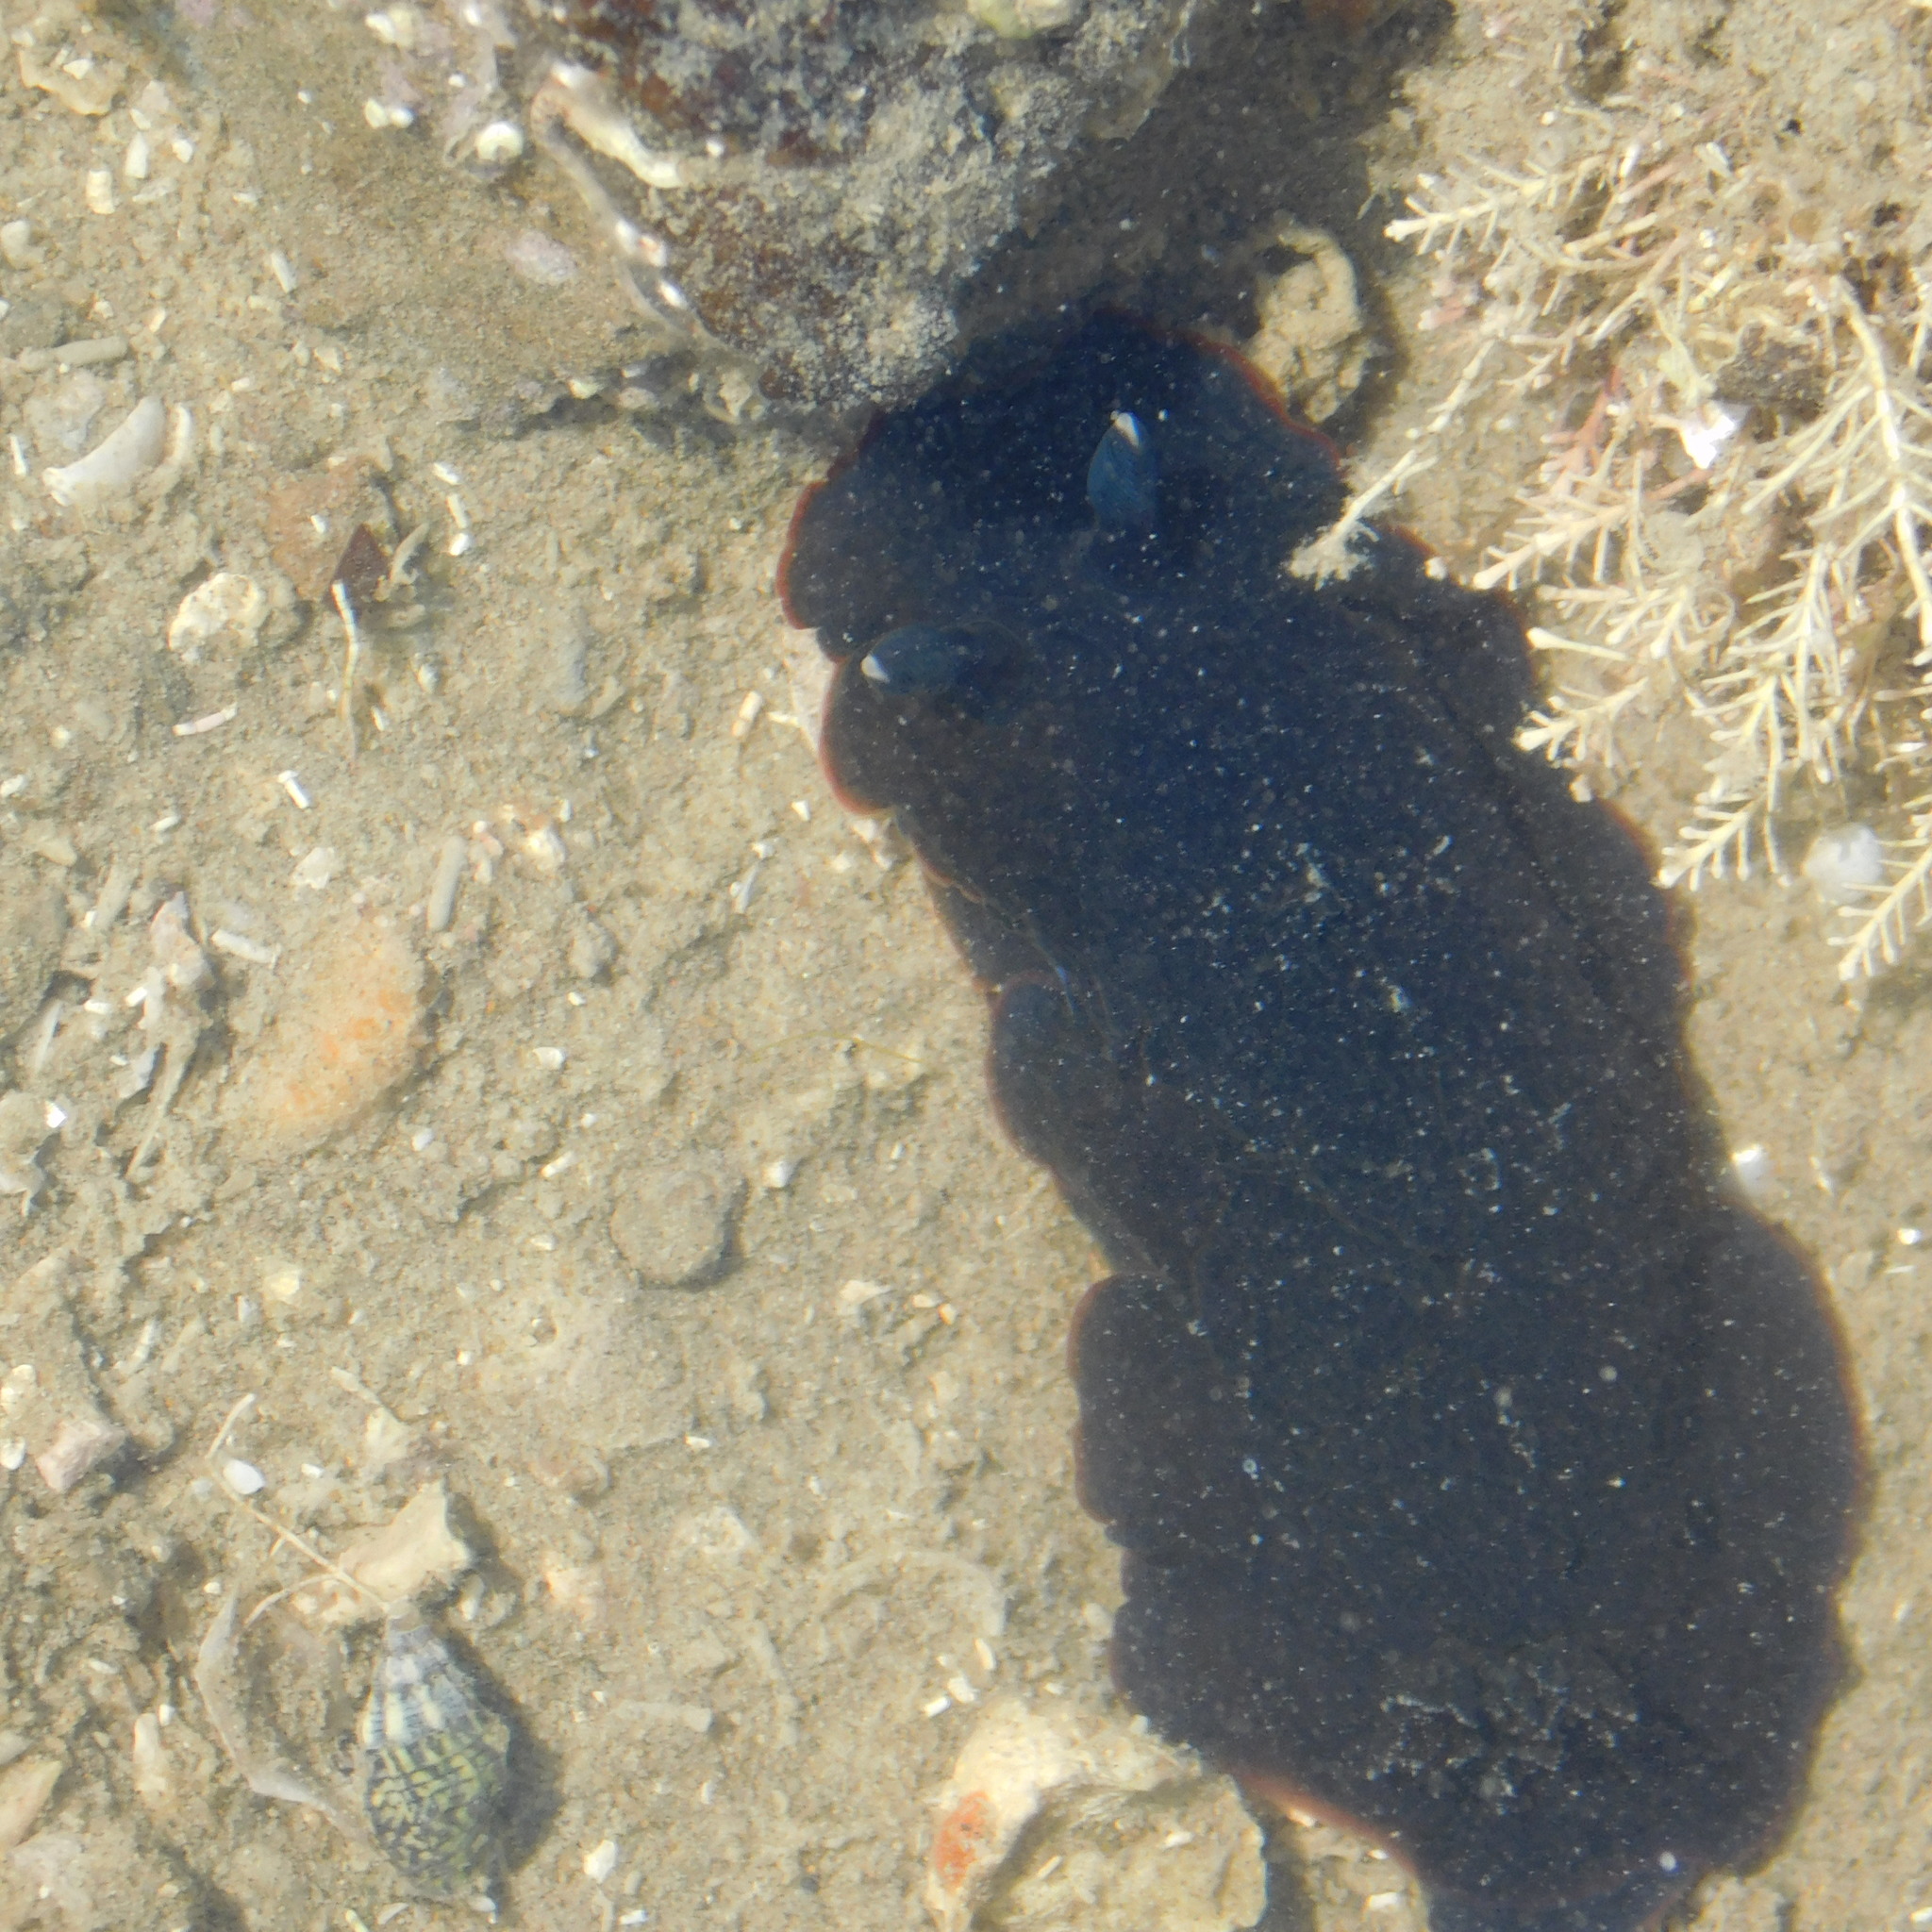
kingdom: Animalia
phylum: Mollusca
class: Gastropoda
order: Nudibranchia
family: Dendrodorididae
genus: Dendrodoris
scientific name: Dendrodoris nigra
